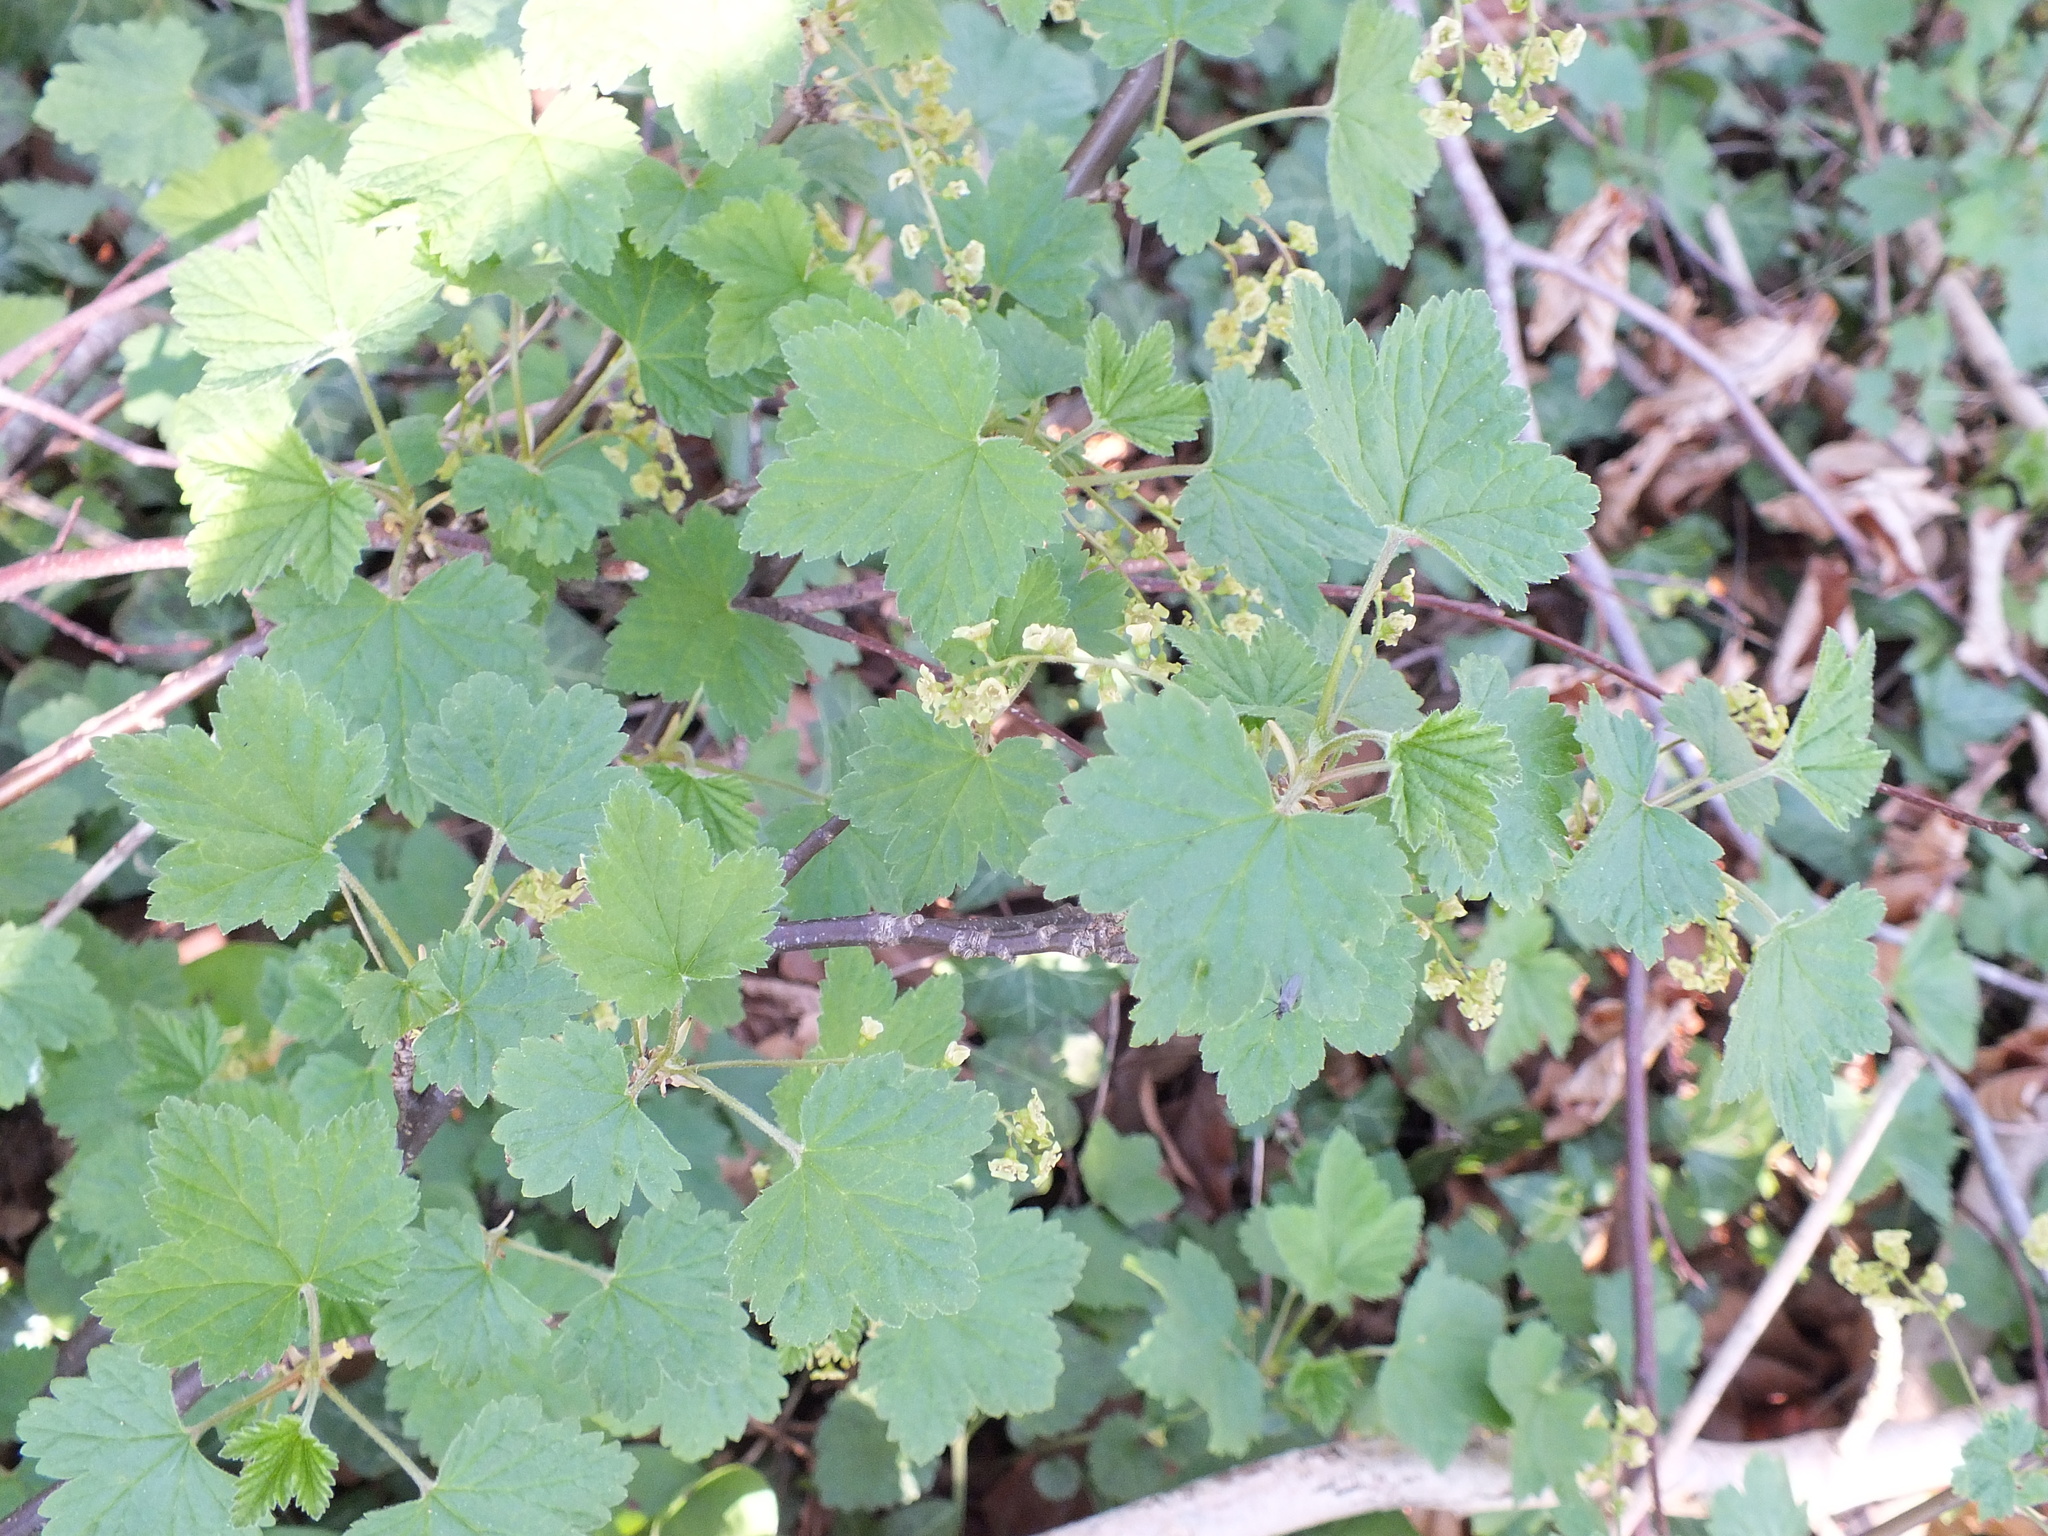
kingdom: Plantae
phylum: Tracheophyta
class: Magnoliopsida
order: Saxifragales
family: Grossulariaceae
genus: Ribes
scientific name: Ribes rubrum
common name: Red currant
